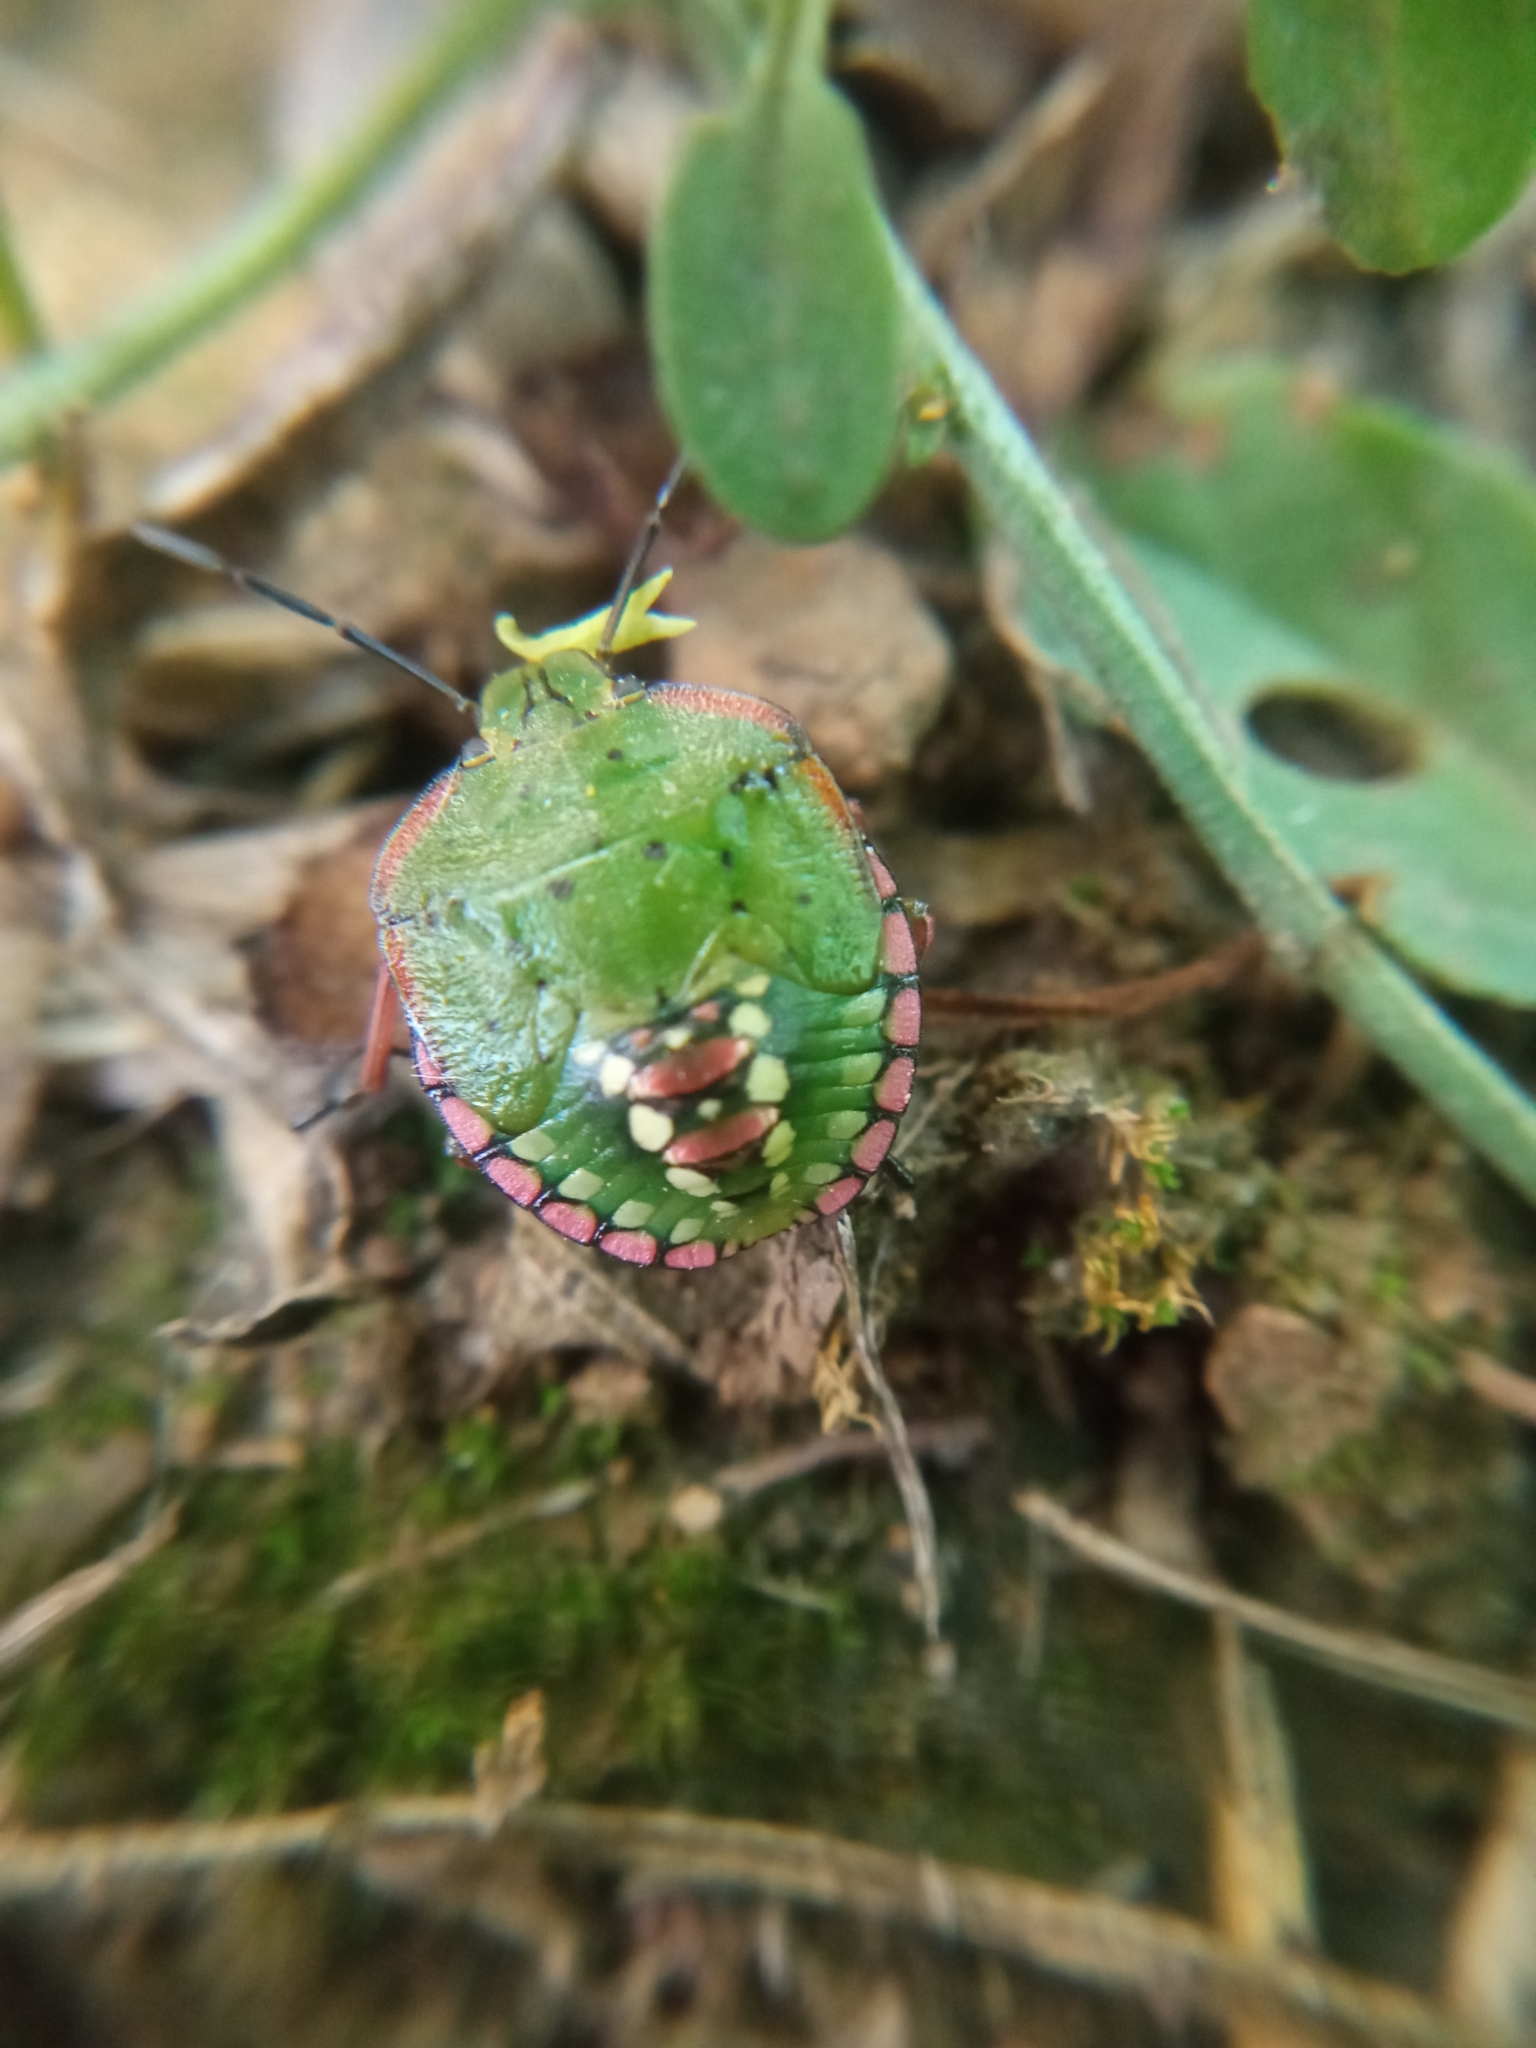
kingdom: Animalia
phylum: Arthropoda
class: Insecta
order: Hemiptera
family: Pentatomidae
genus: Nezara
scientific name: Nezara viridula
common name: Southern green stink bug
